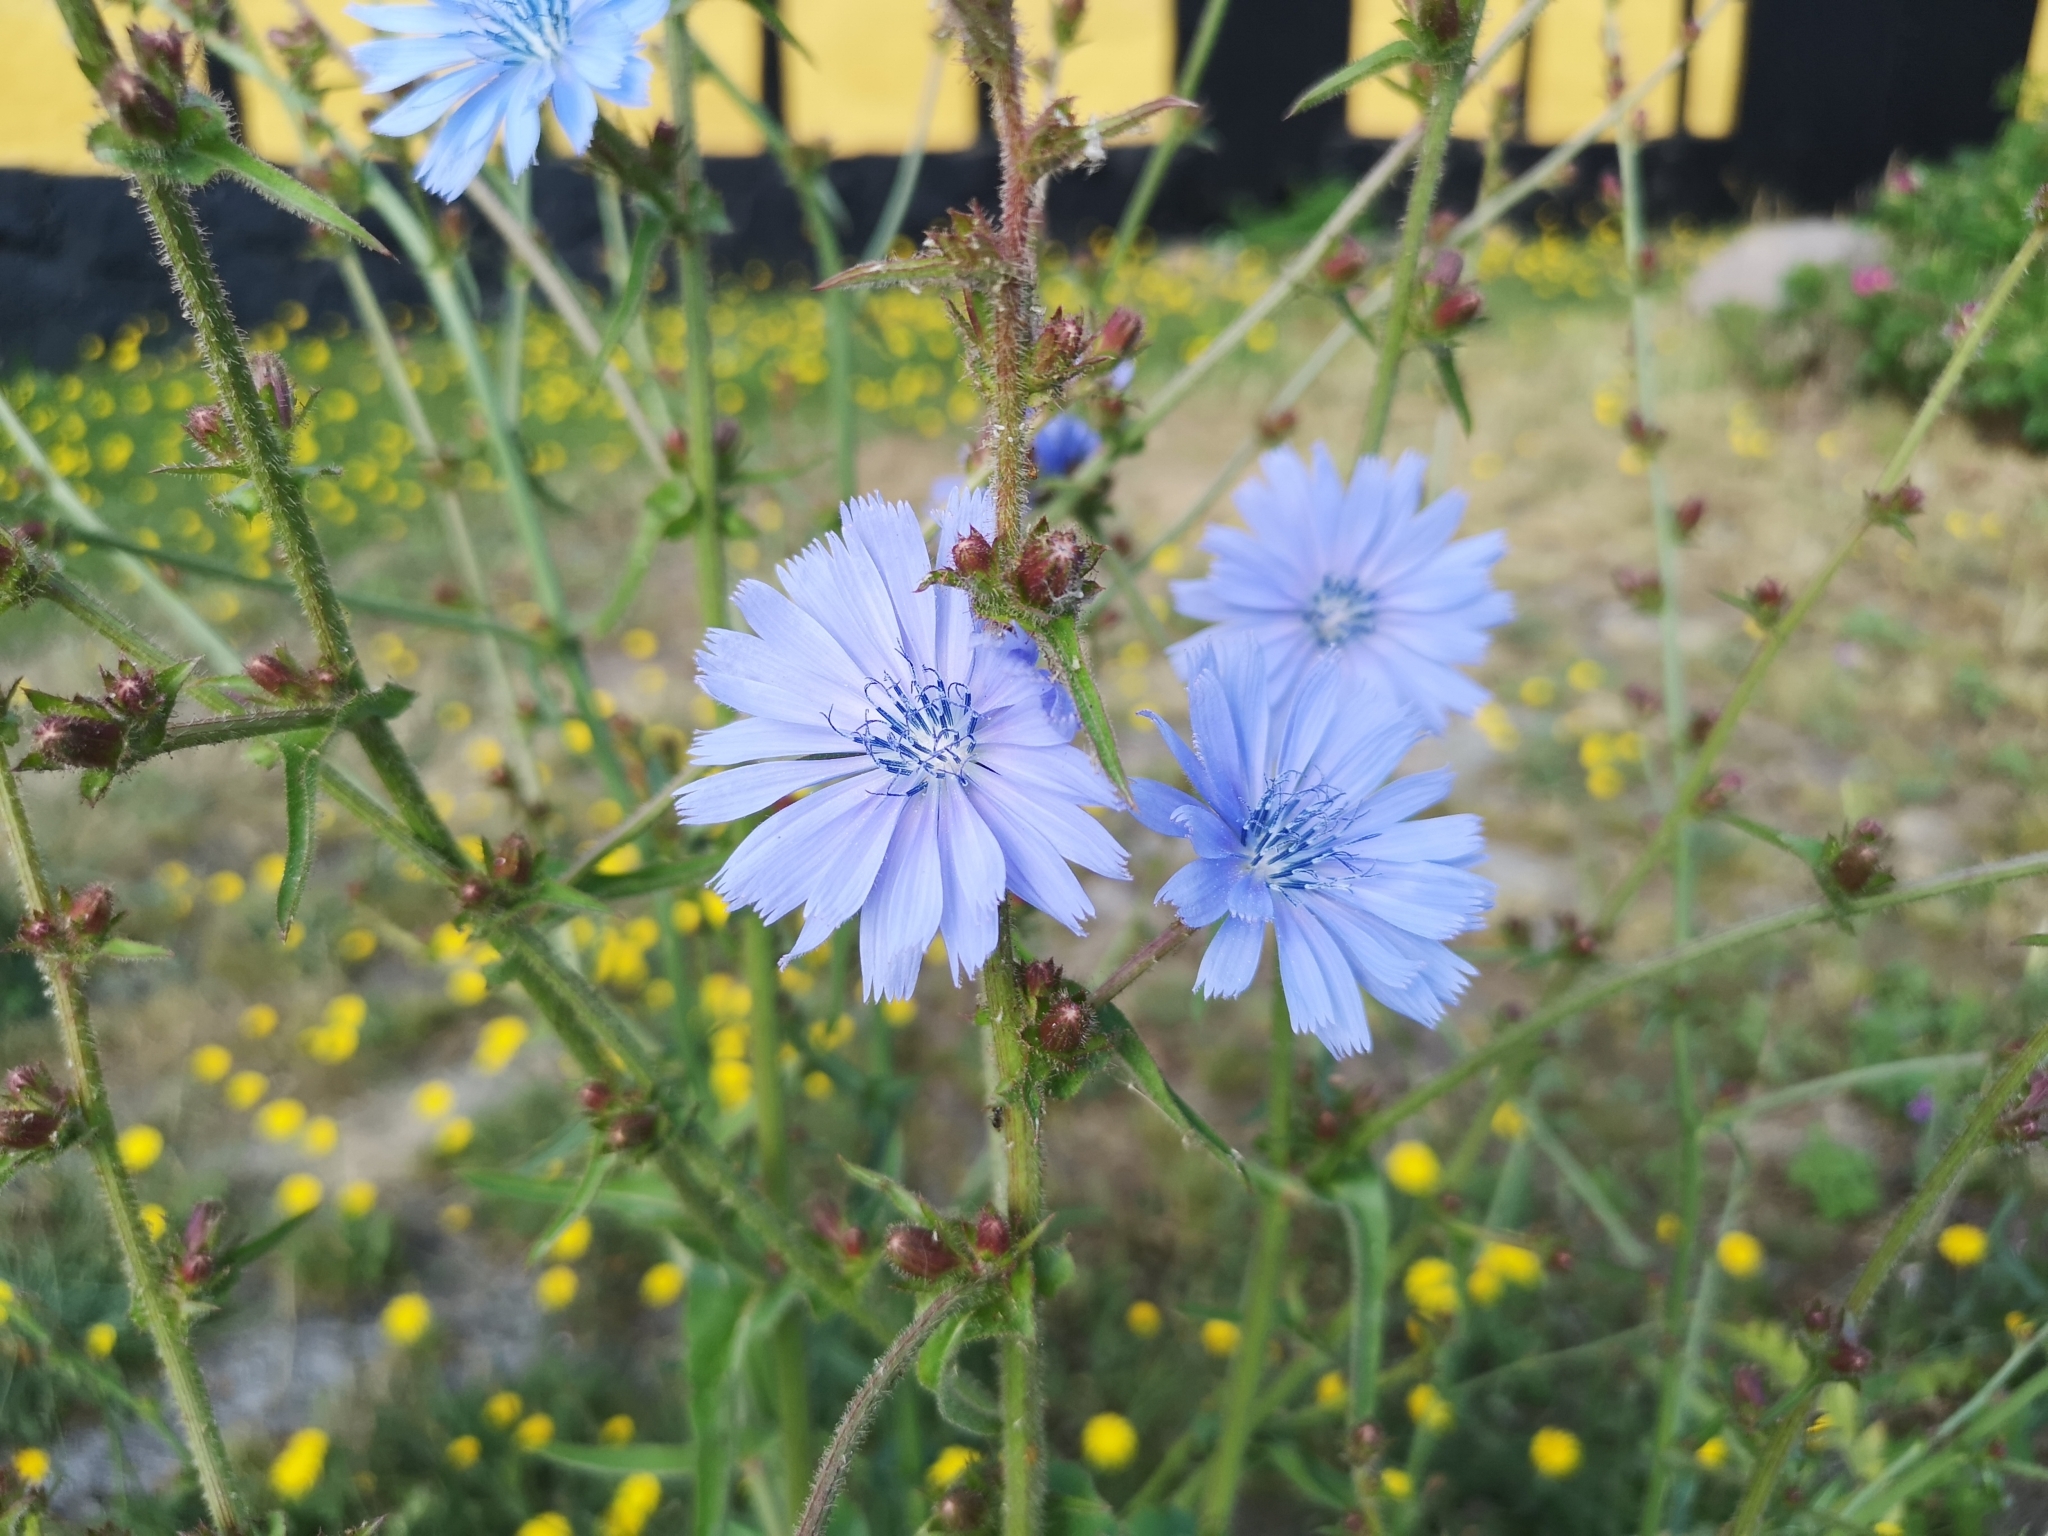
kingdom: Plantae
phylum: Tracheophyta
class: Magnoliopsida
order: Asterales
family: Asteraceae
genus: Cichorium
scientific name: Cichorium intybus
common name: Chicory
